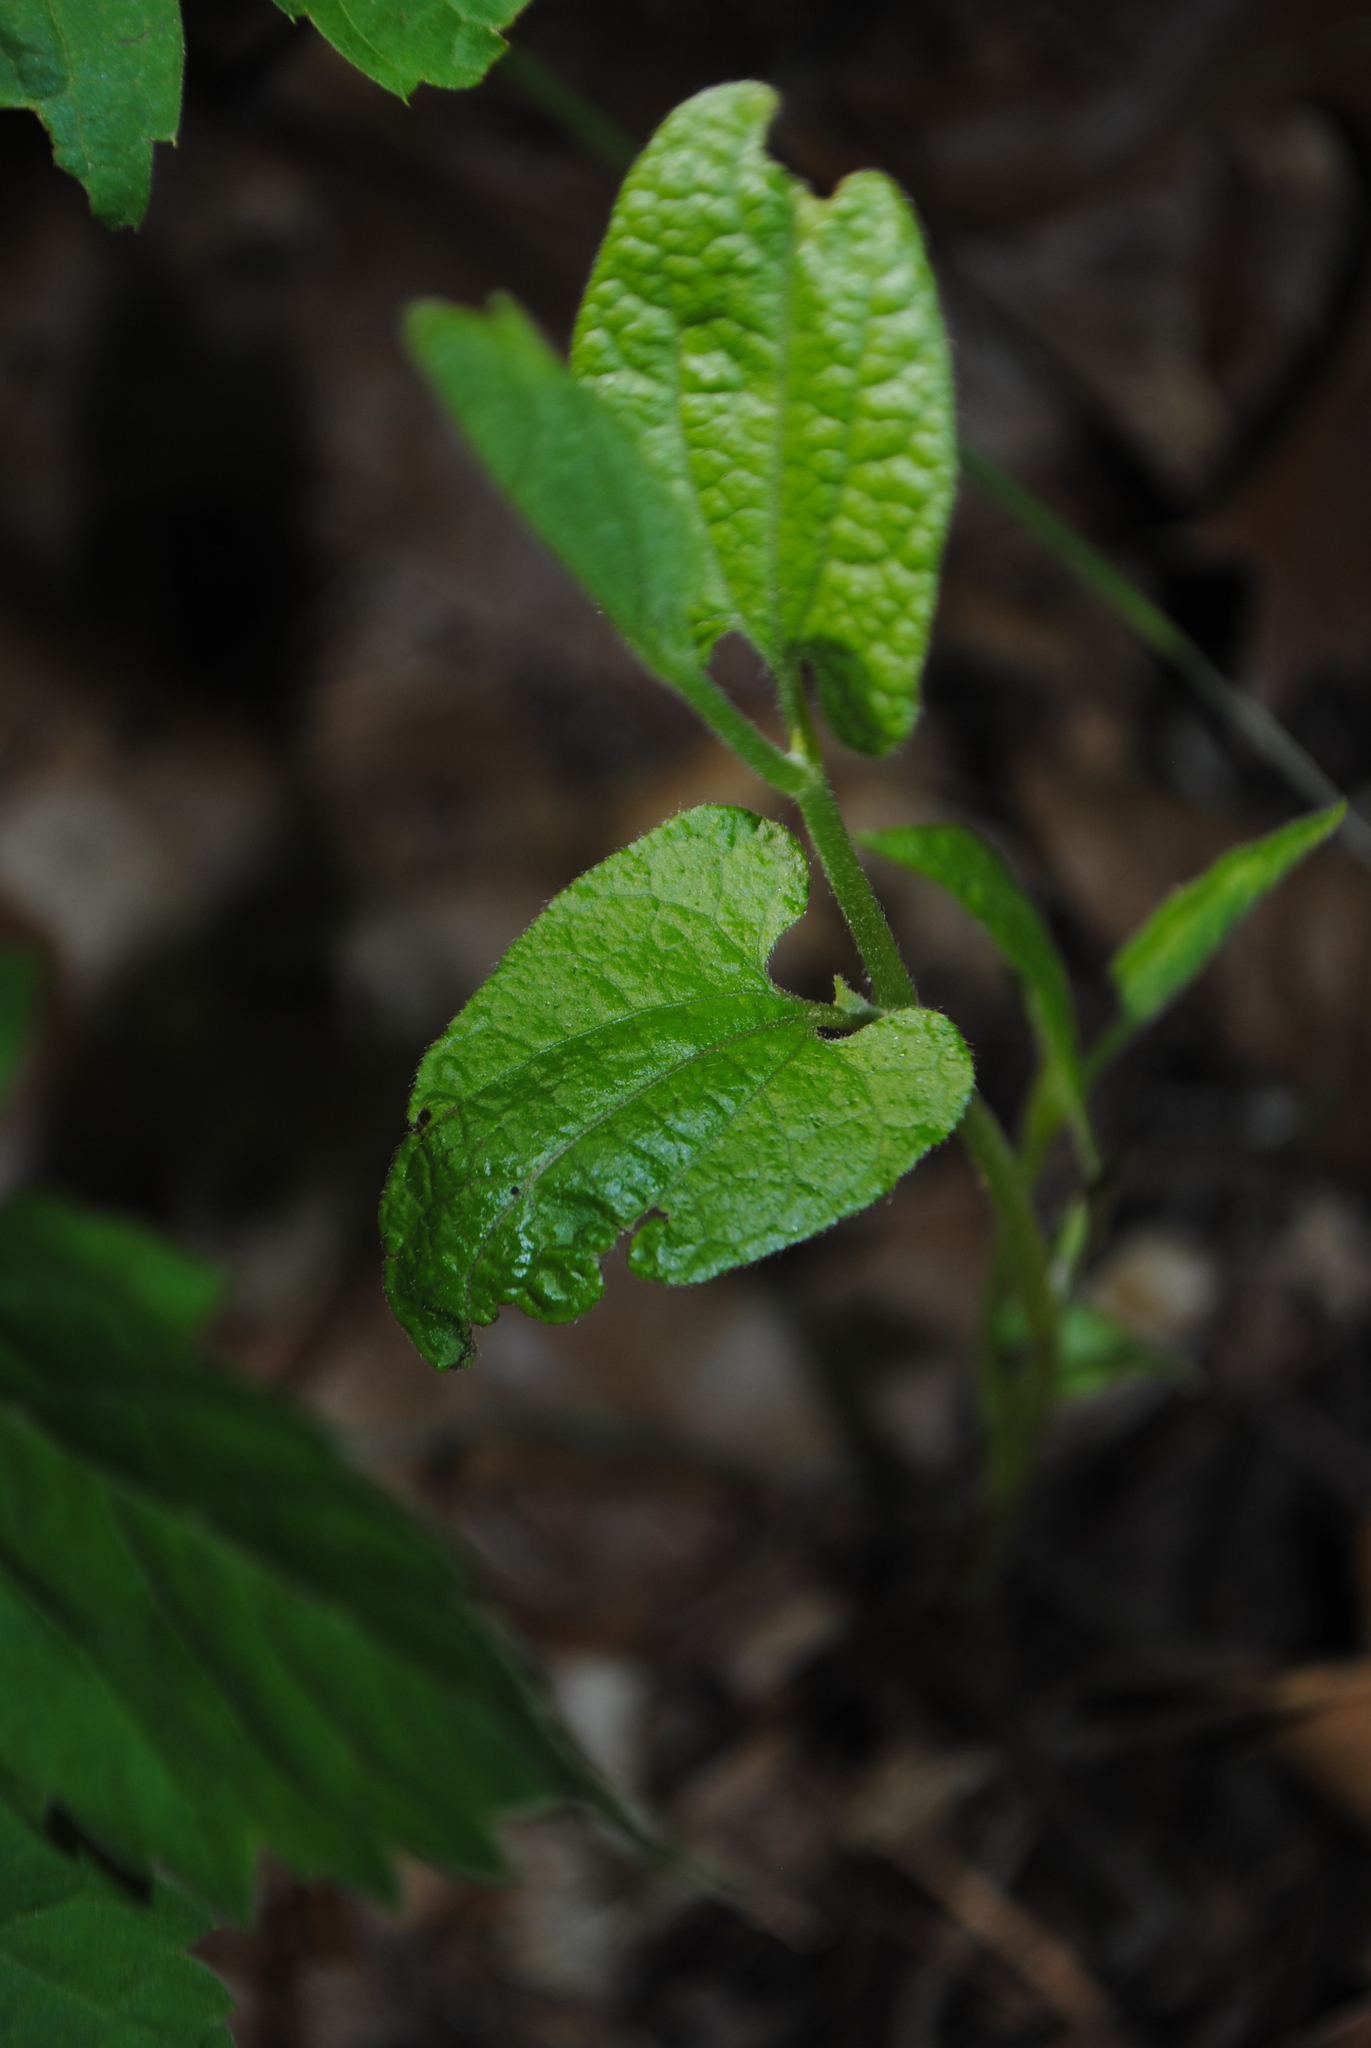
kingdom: Plantae
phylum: Tracheophyta
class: Magnoliopsida
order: Piperales
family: Aristolochiaceae
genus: Endodeca
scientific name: Endodeca serpentaria
